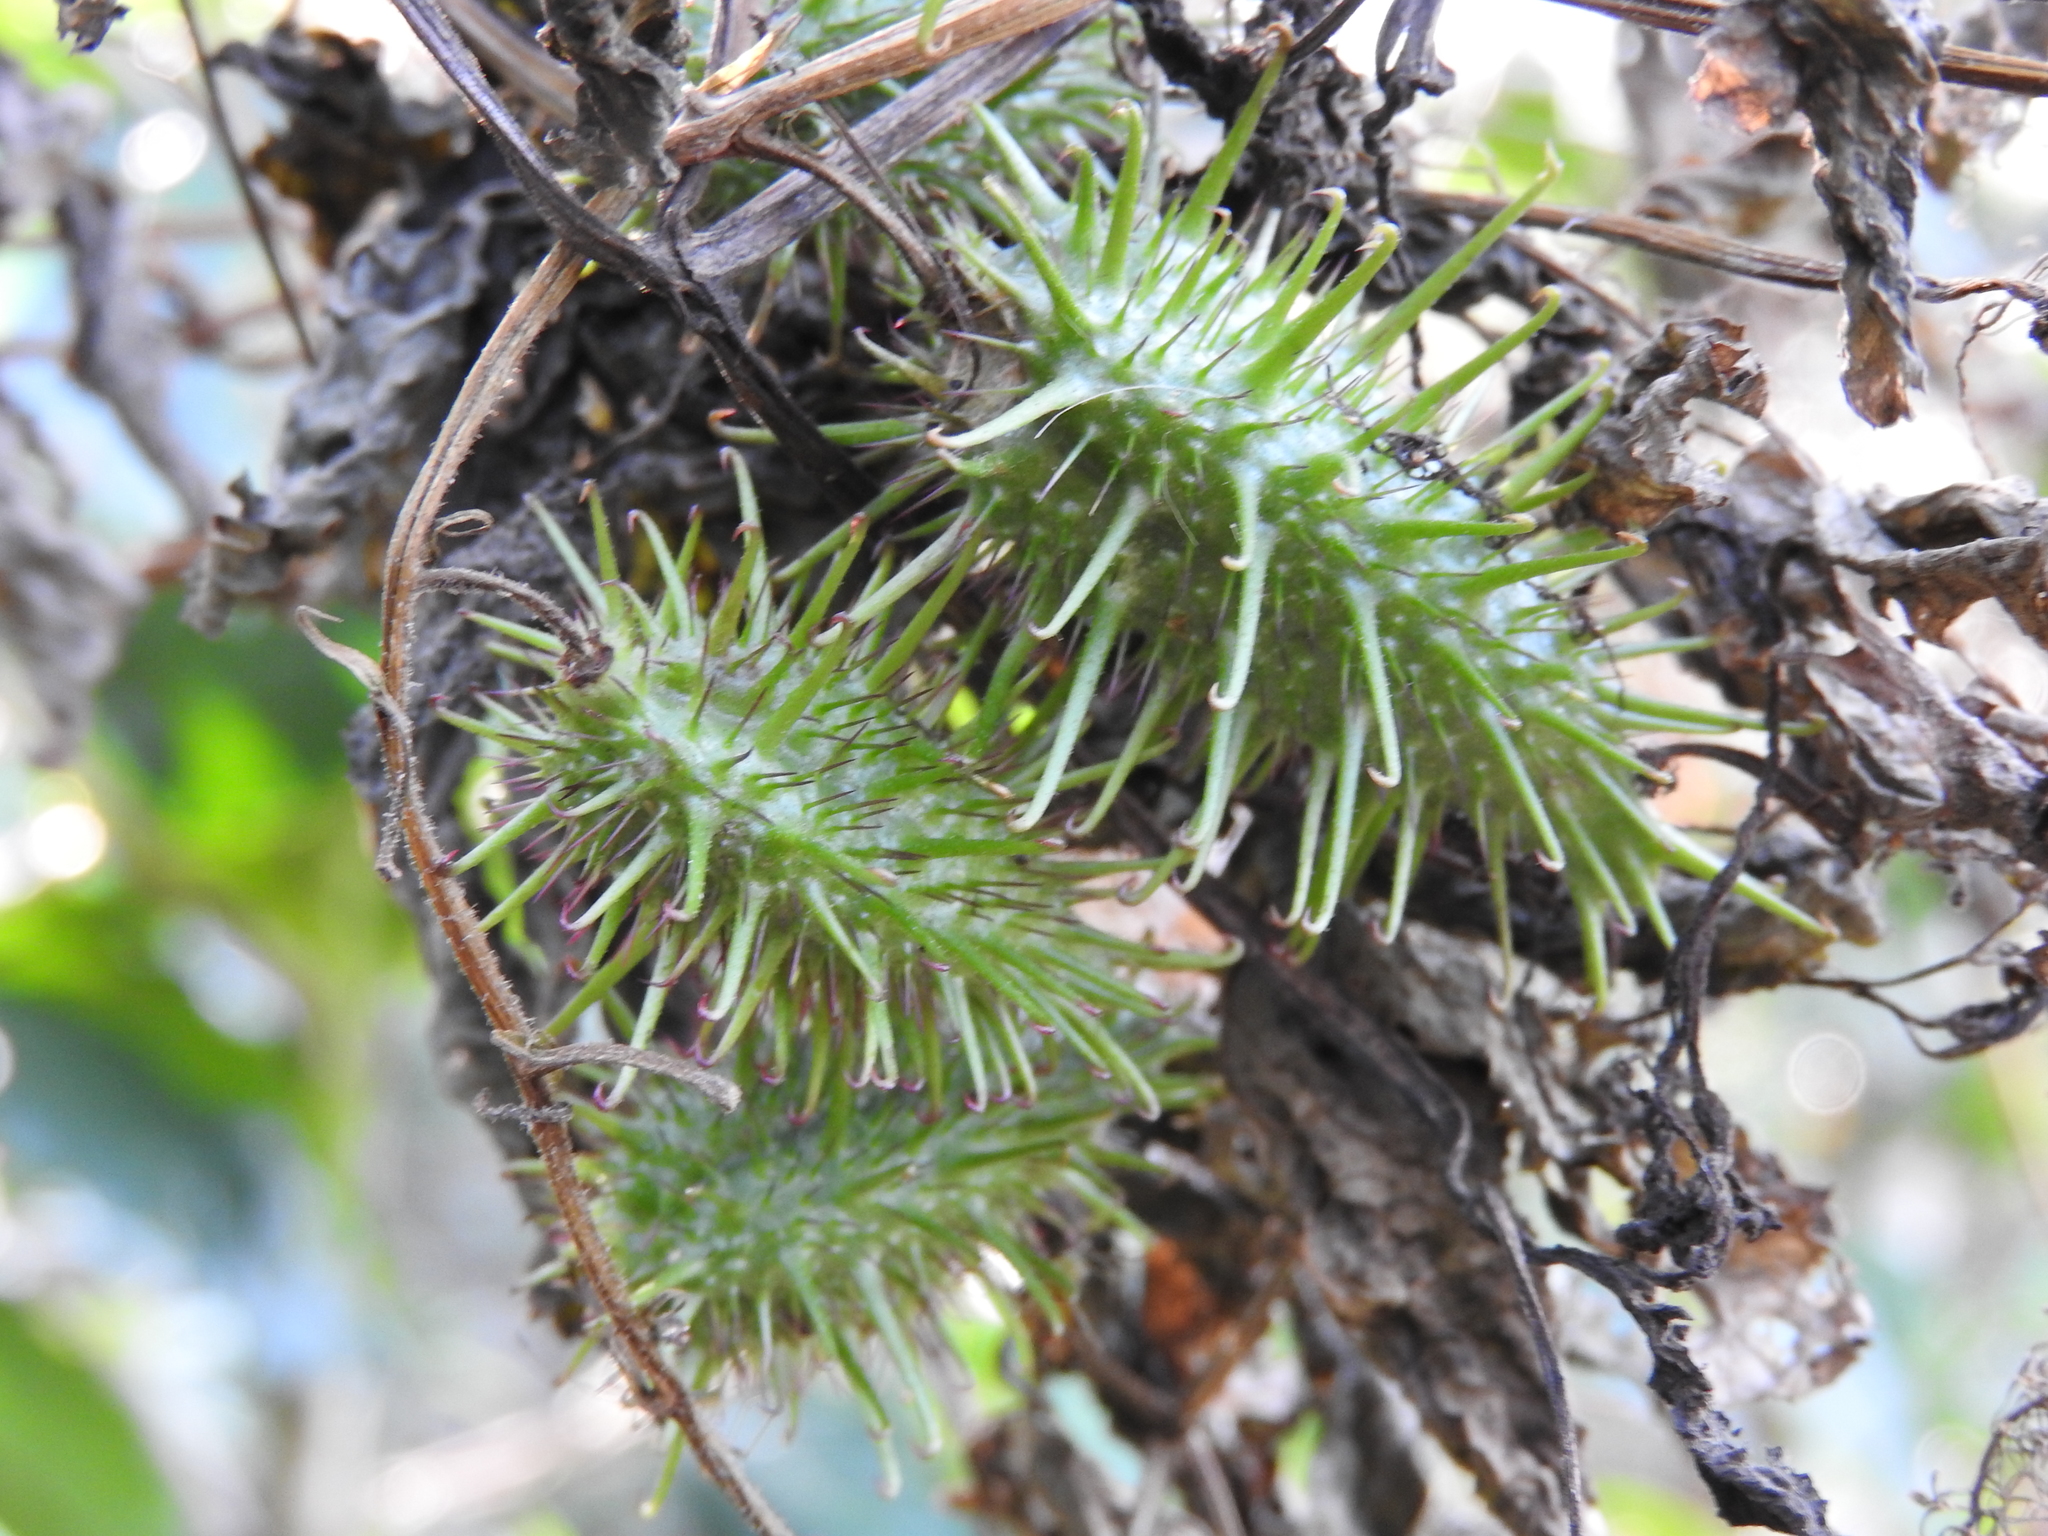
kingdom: Plantae
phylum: Tracheophyta
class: Magnoliopsida
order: Lamiales
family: Bignoniaceae
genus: Tourrettia
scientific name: Tourrettia lappacea
